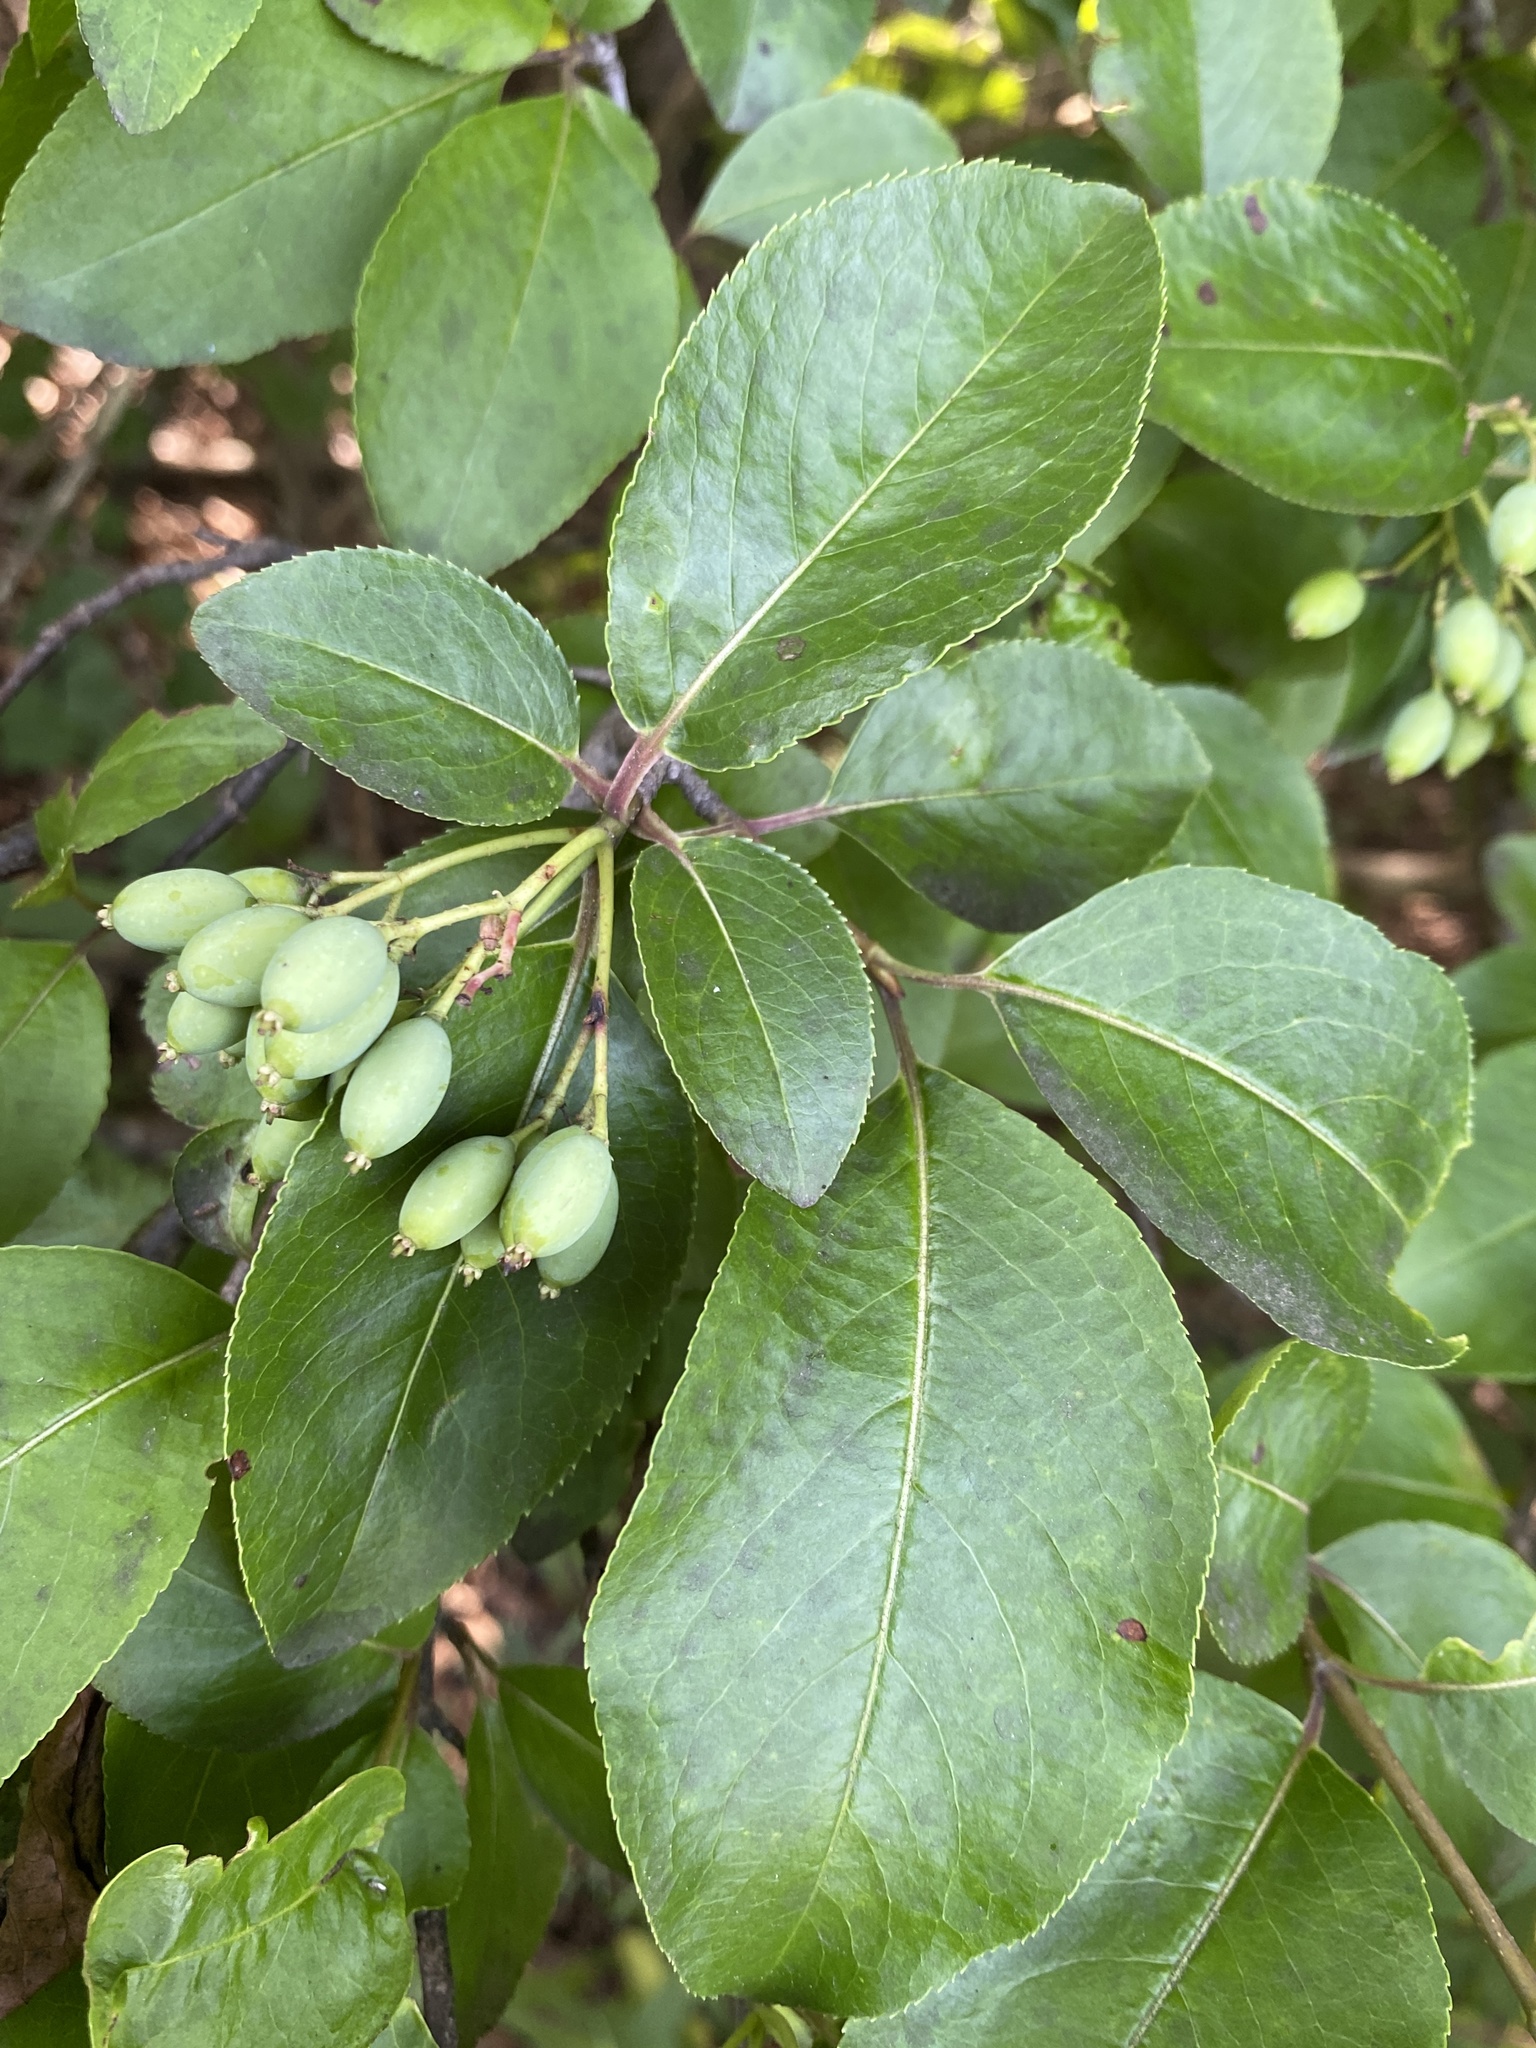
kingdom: Plantae
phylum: Tracheophyta
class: Magnoliopsida
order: Dipsacales
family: Viburnaceae
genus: Viburnum
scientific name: Viburnum prunifolium
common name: Black haw
